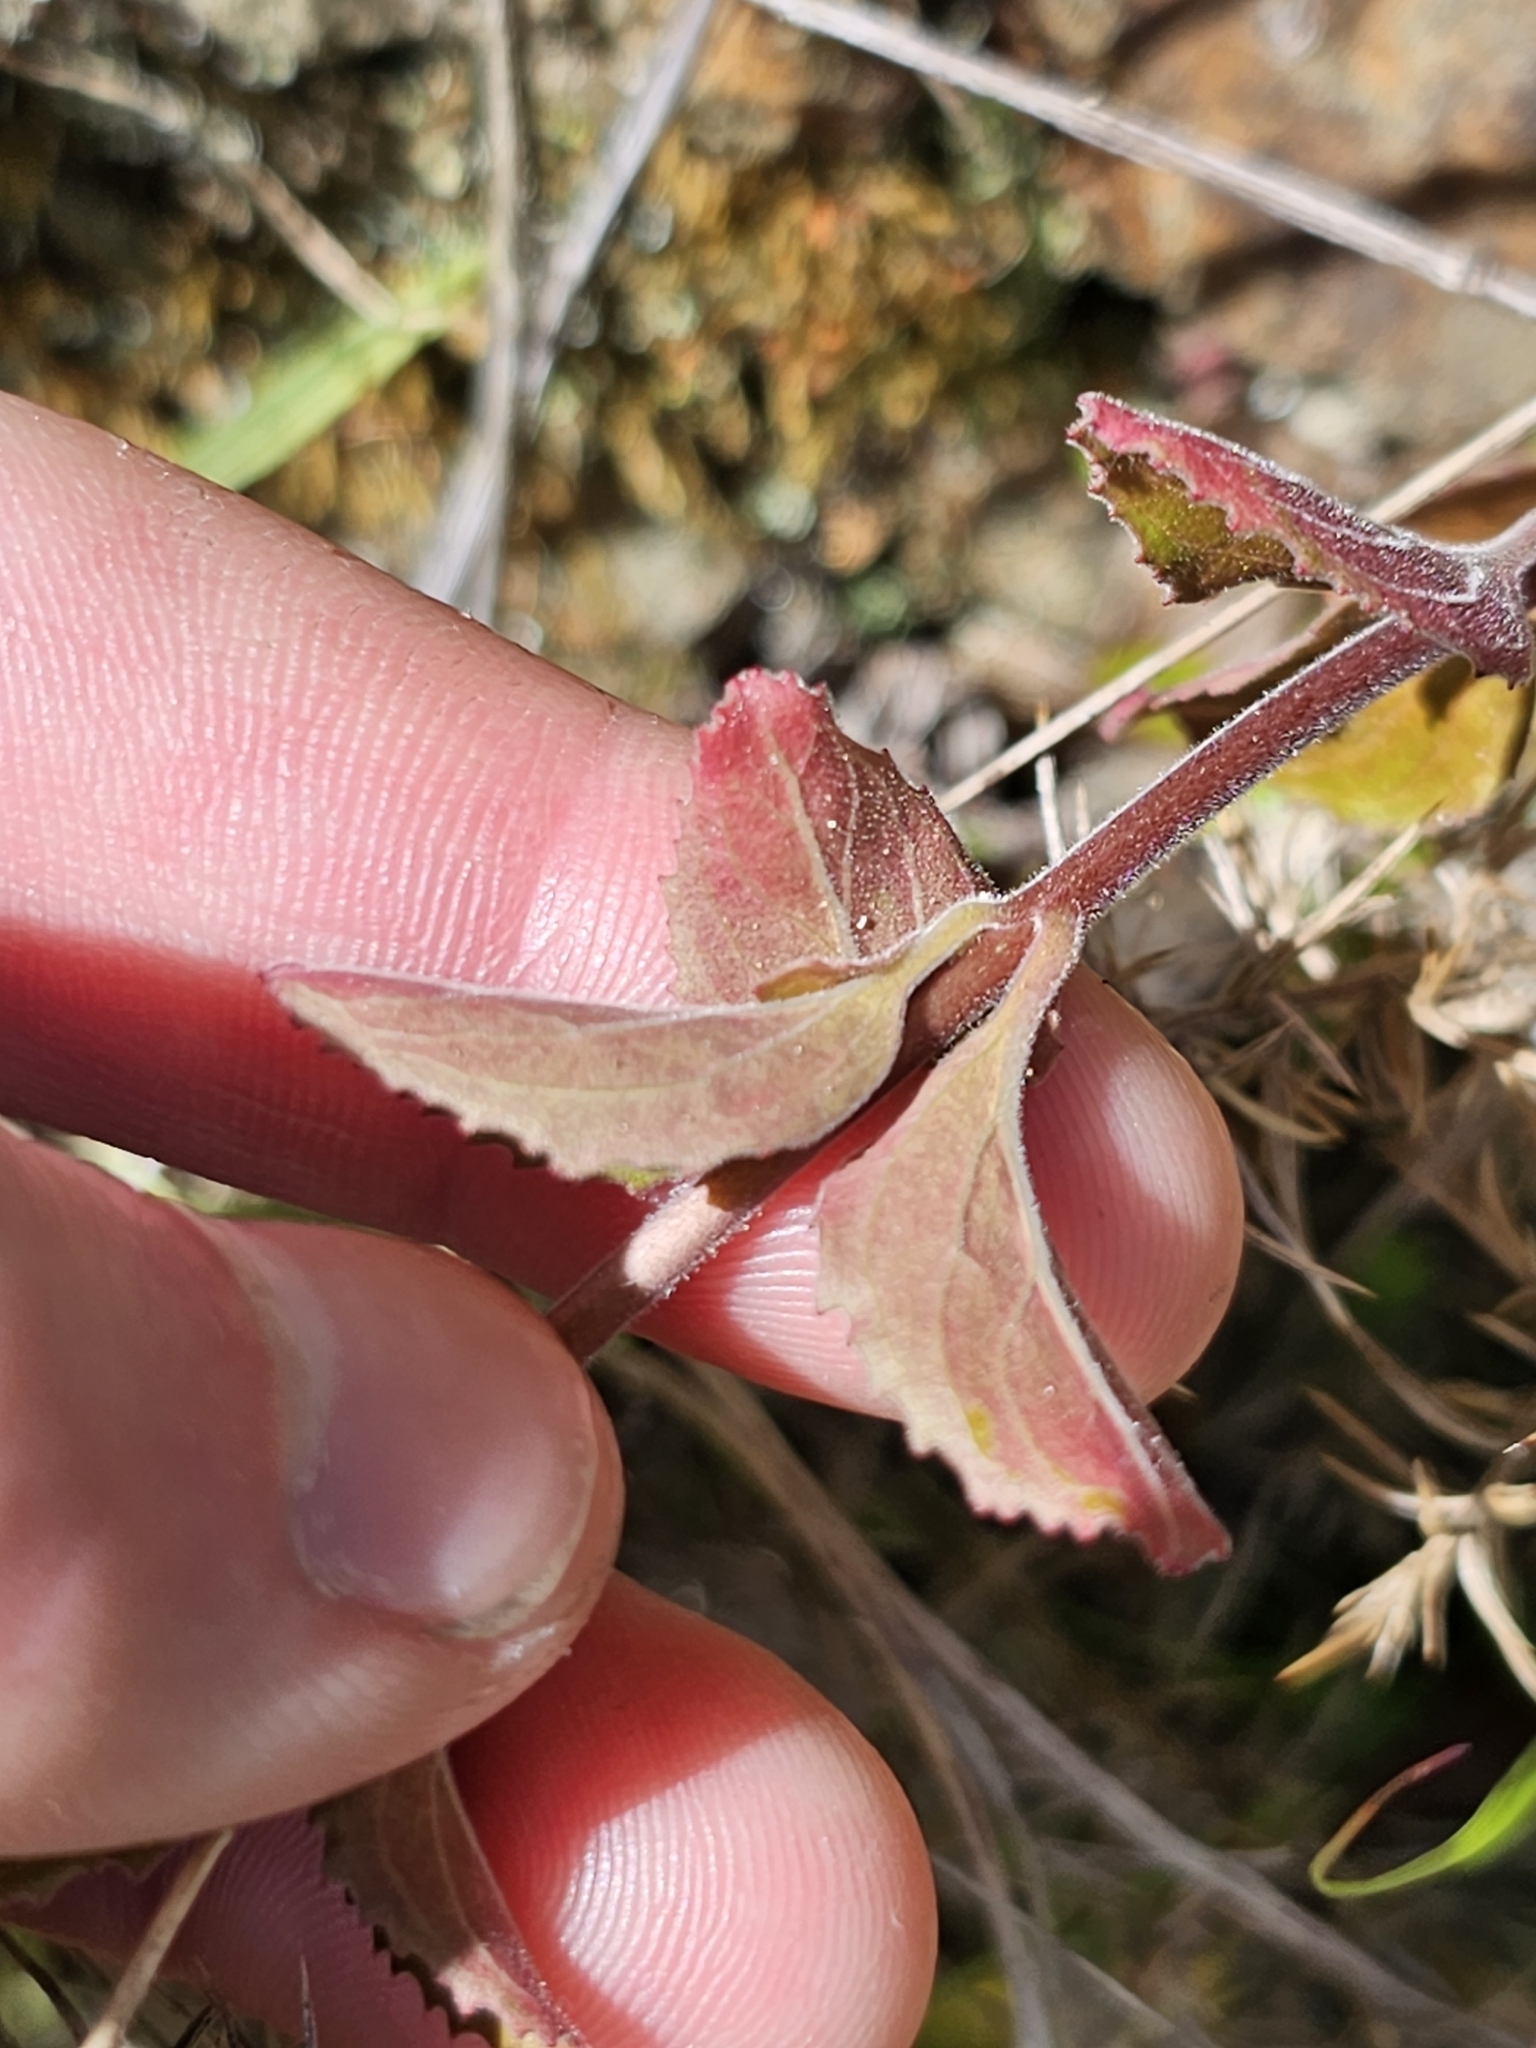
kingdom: Plantae
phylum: Tracheophyta
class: Magnoliopsida
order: Myrtales
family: Onagraceae
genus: Epilobium
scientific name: Epilobium pubens
